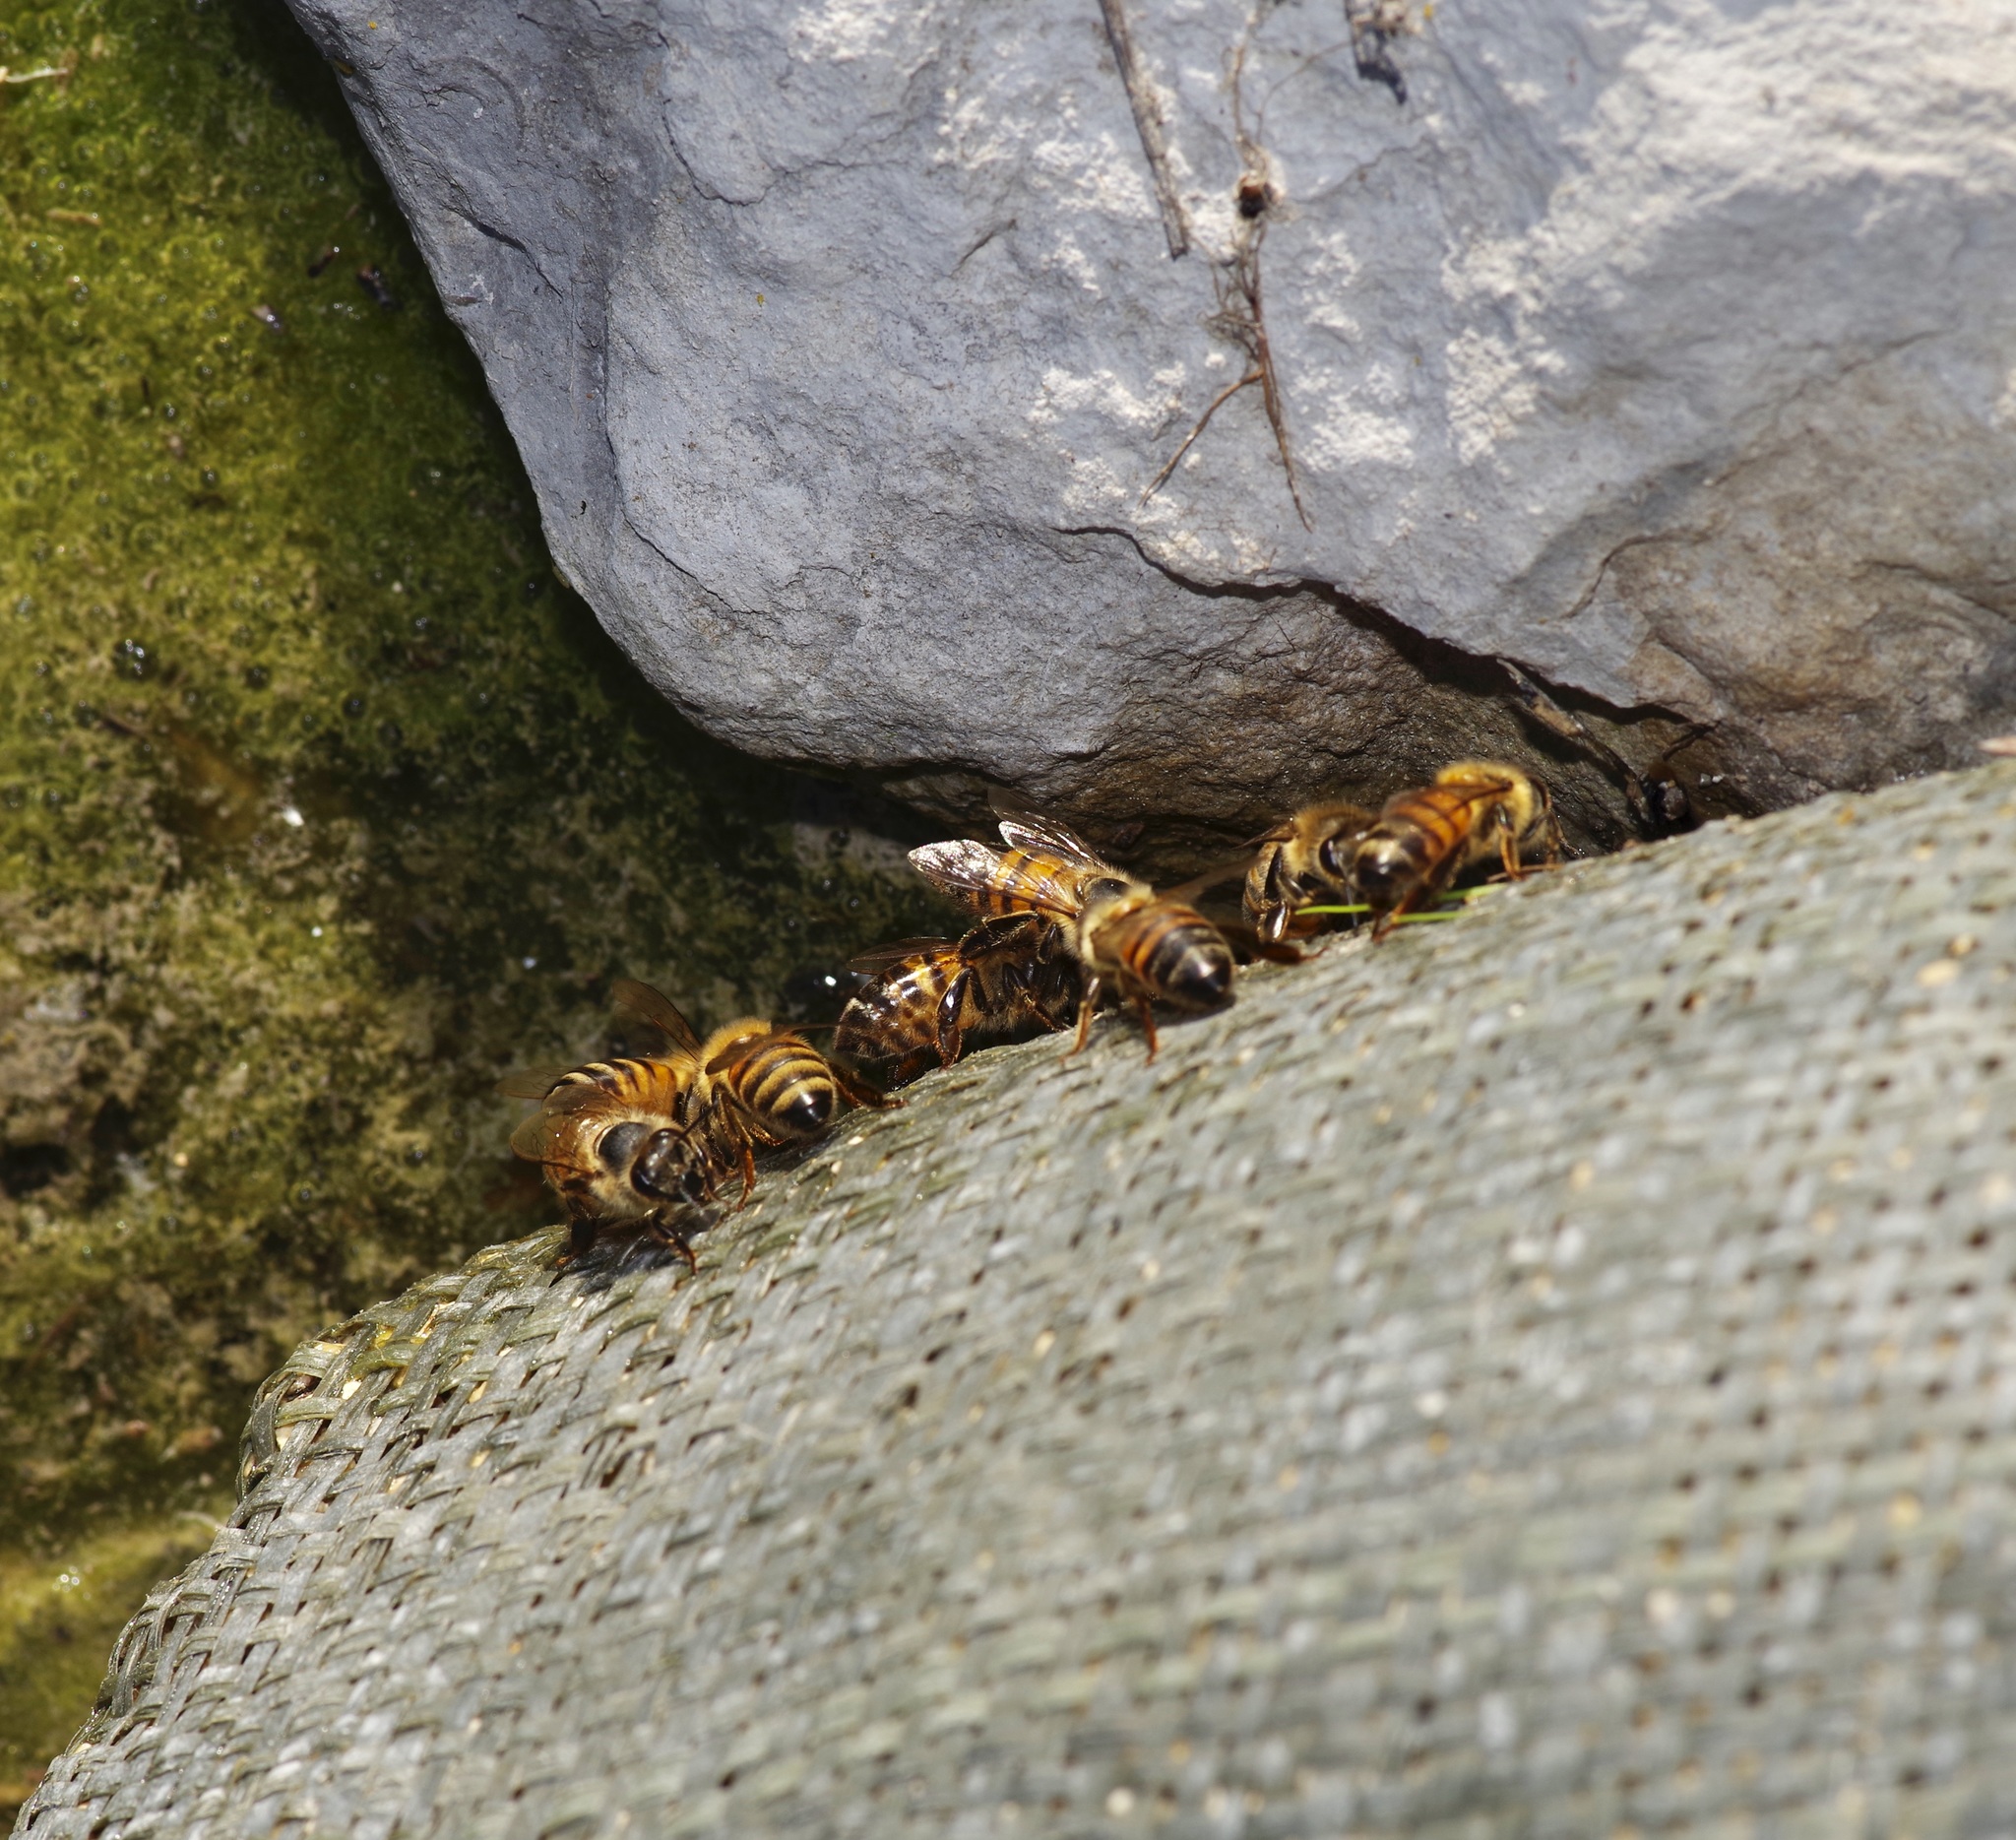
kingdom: Animalia
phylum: Arthropoda
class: Insecta
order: Hymenoptera
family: Apidae
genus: Apis
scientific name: Apis mellifera
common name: Honey bee
